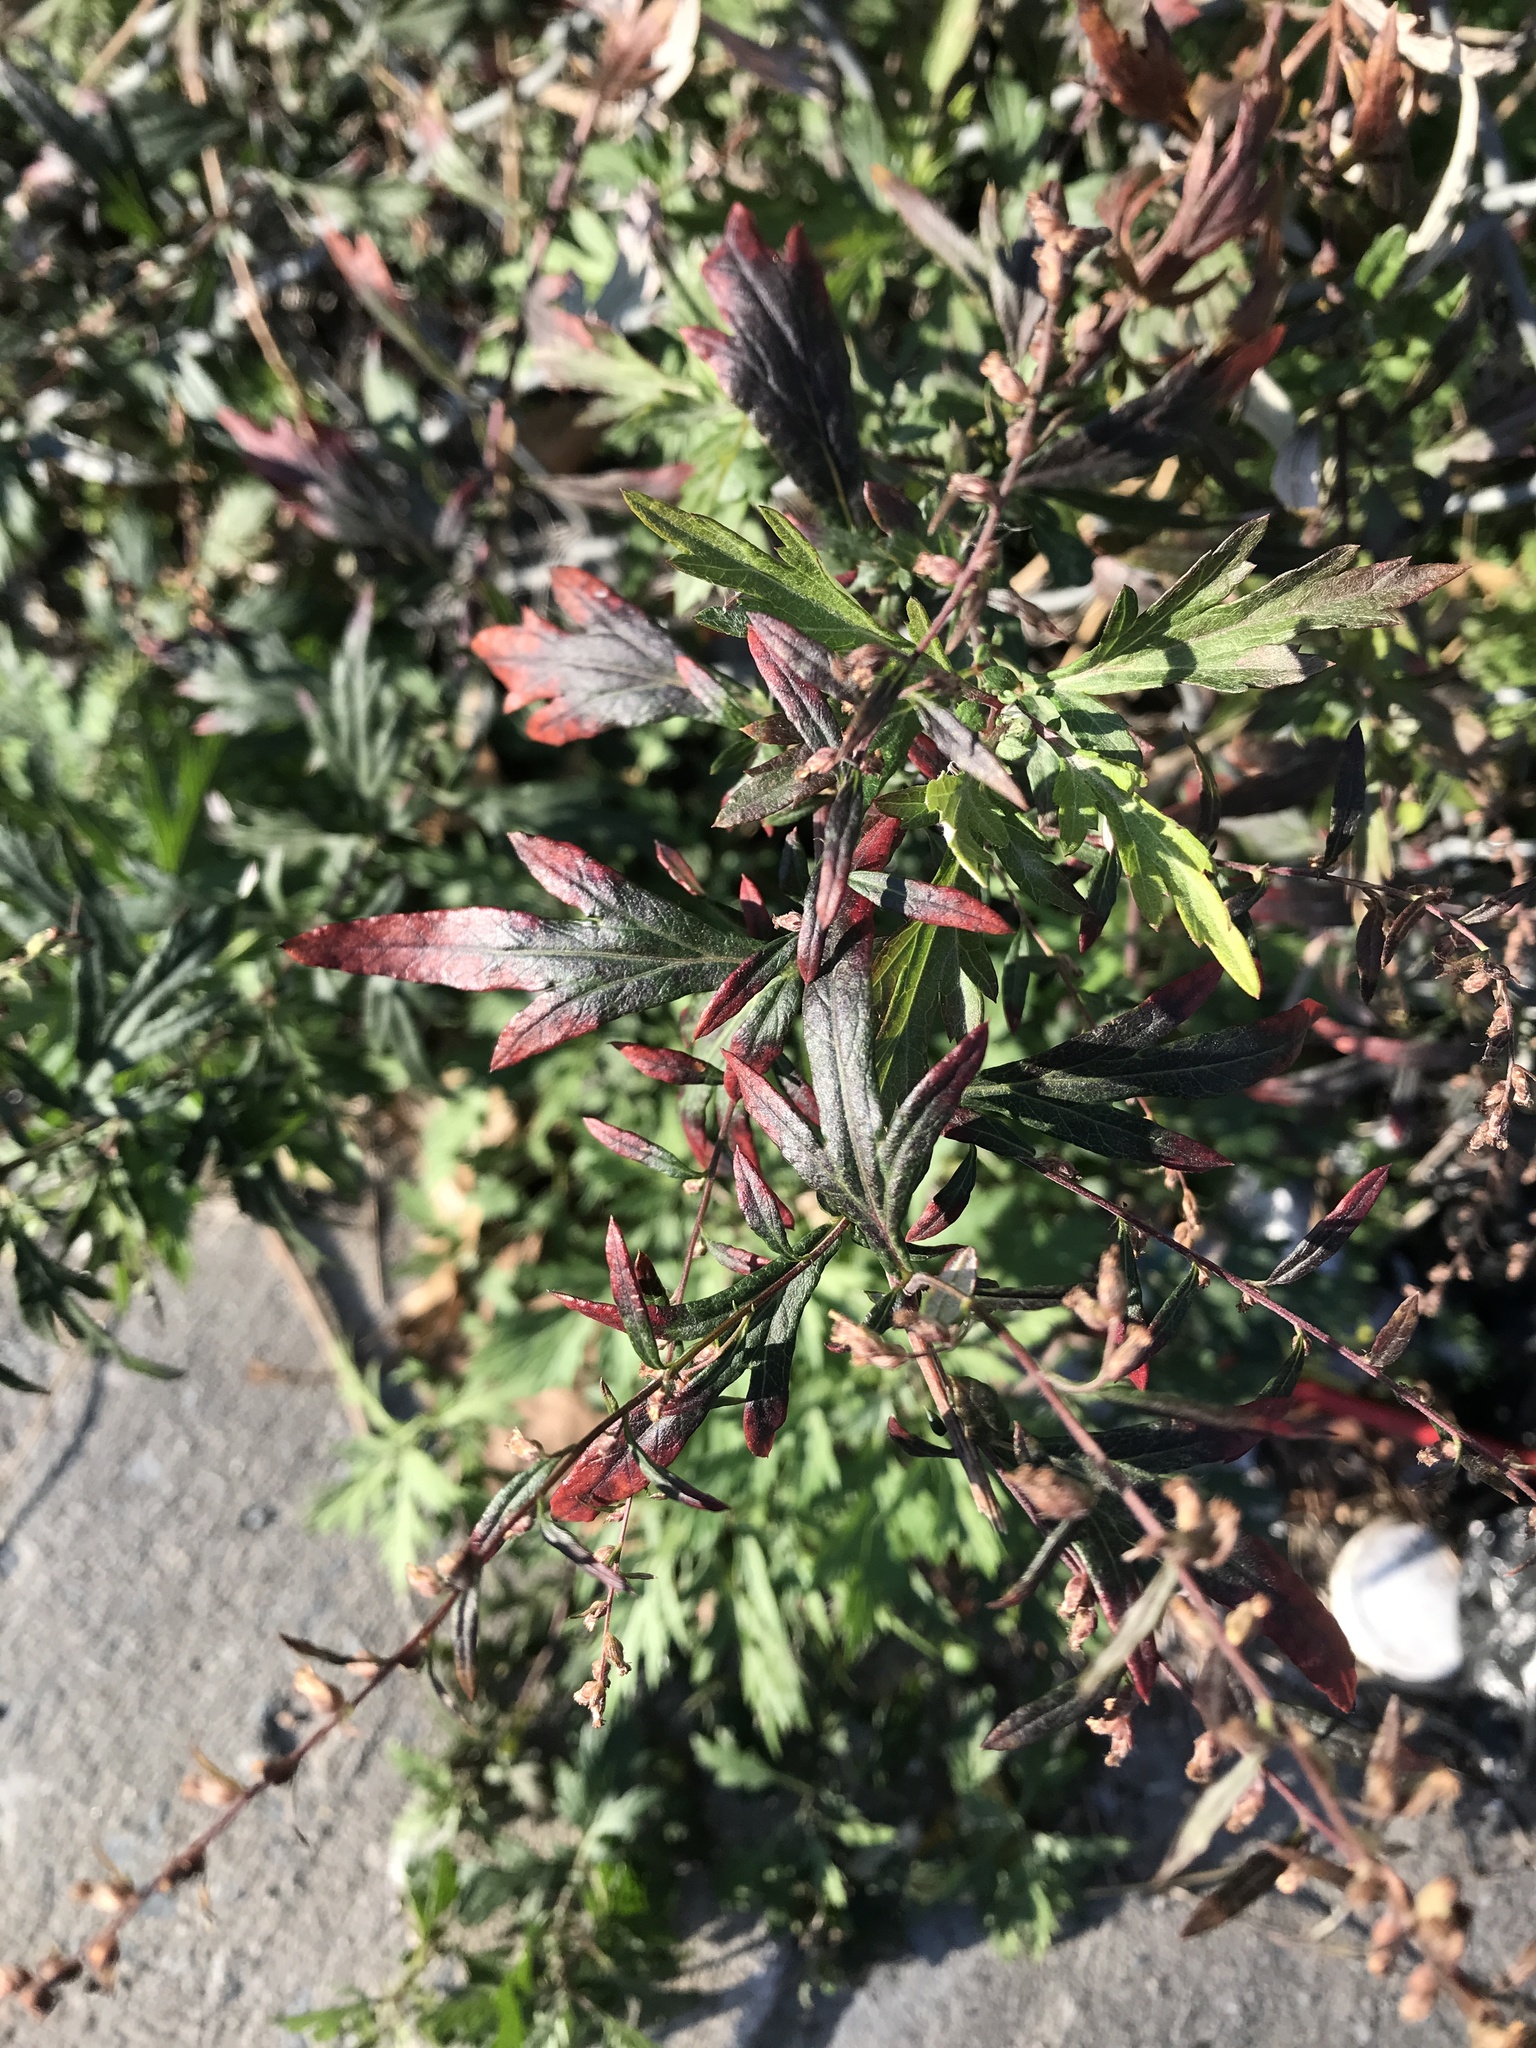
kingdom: Plantae
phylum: Tracheophyta
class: Magnoliopsida
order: Asterales
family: Asteraceae
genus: Artemisia
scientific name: Artemisia vulgaris
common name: Mugwort
